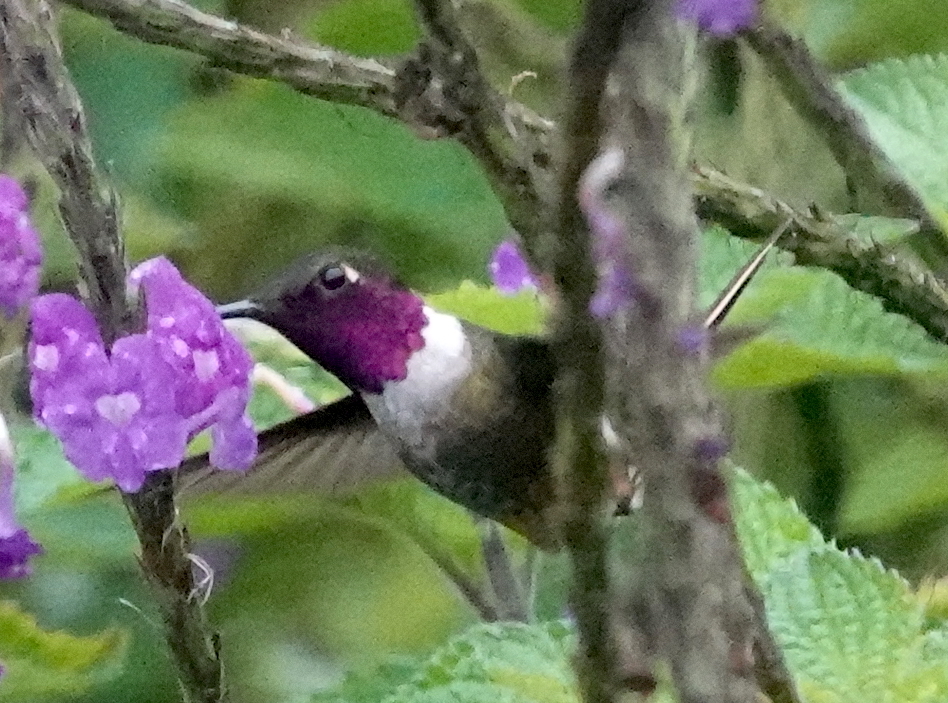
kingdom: Animalia
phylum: Chordata
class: Aves
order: Apodiformes
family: Trochilidae
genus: Calliphlox
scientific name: Calliphlox bryantae
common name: Magenta-throated woodstar
